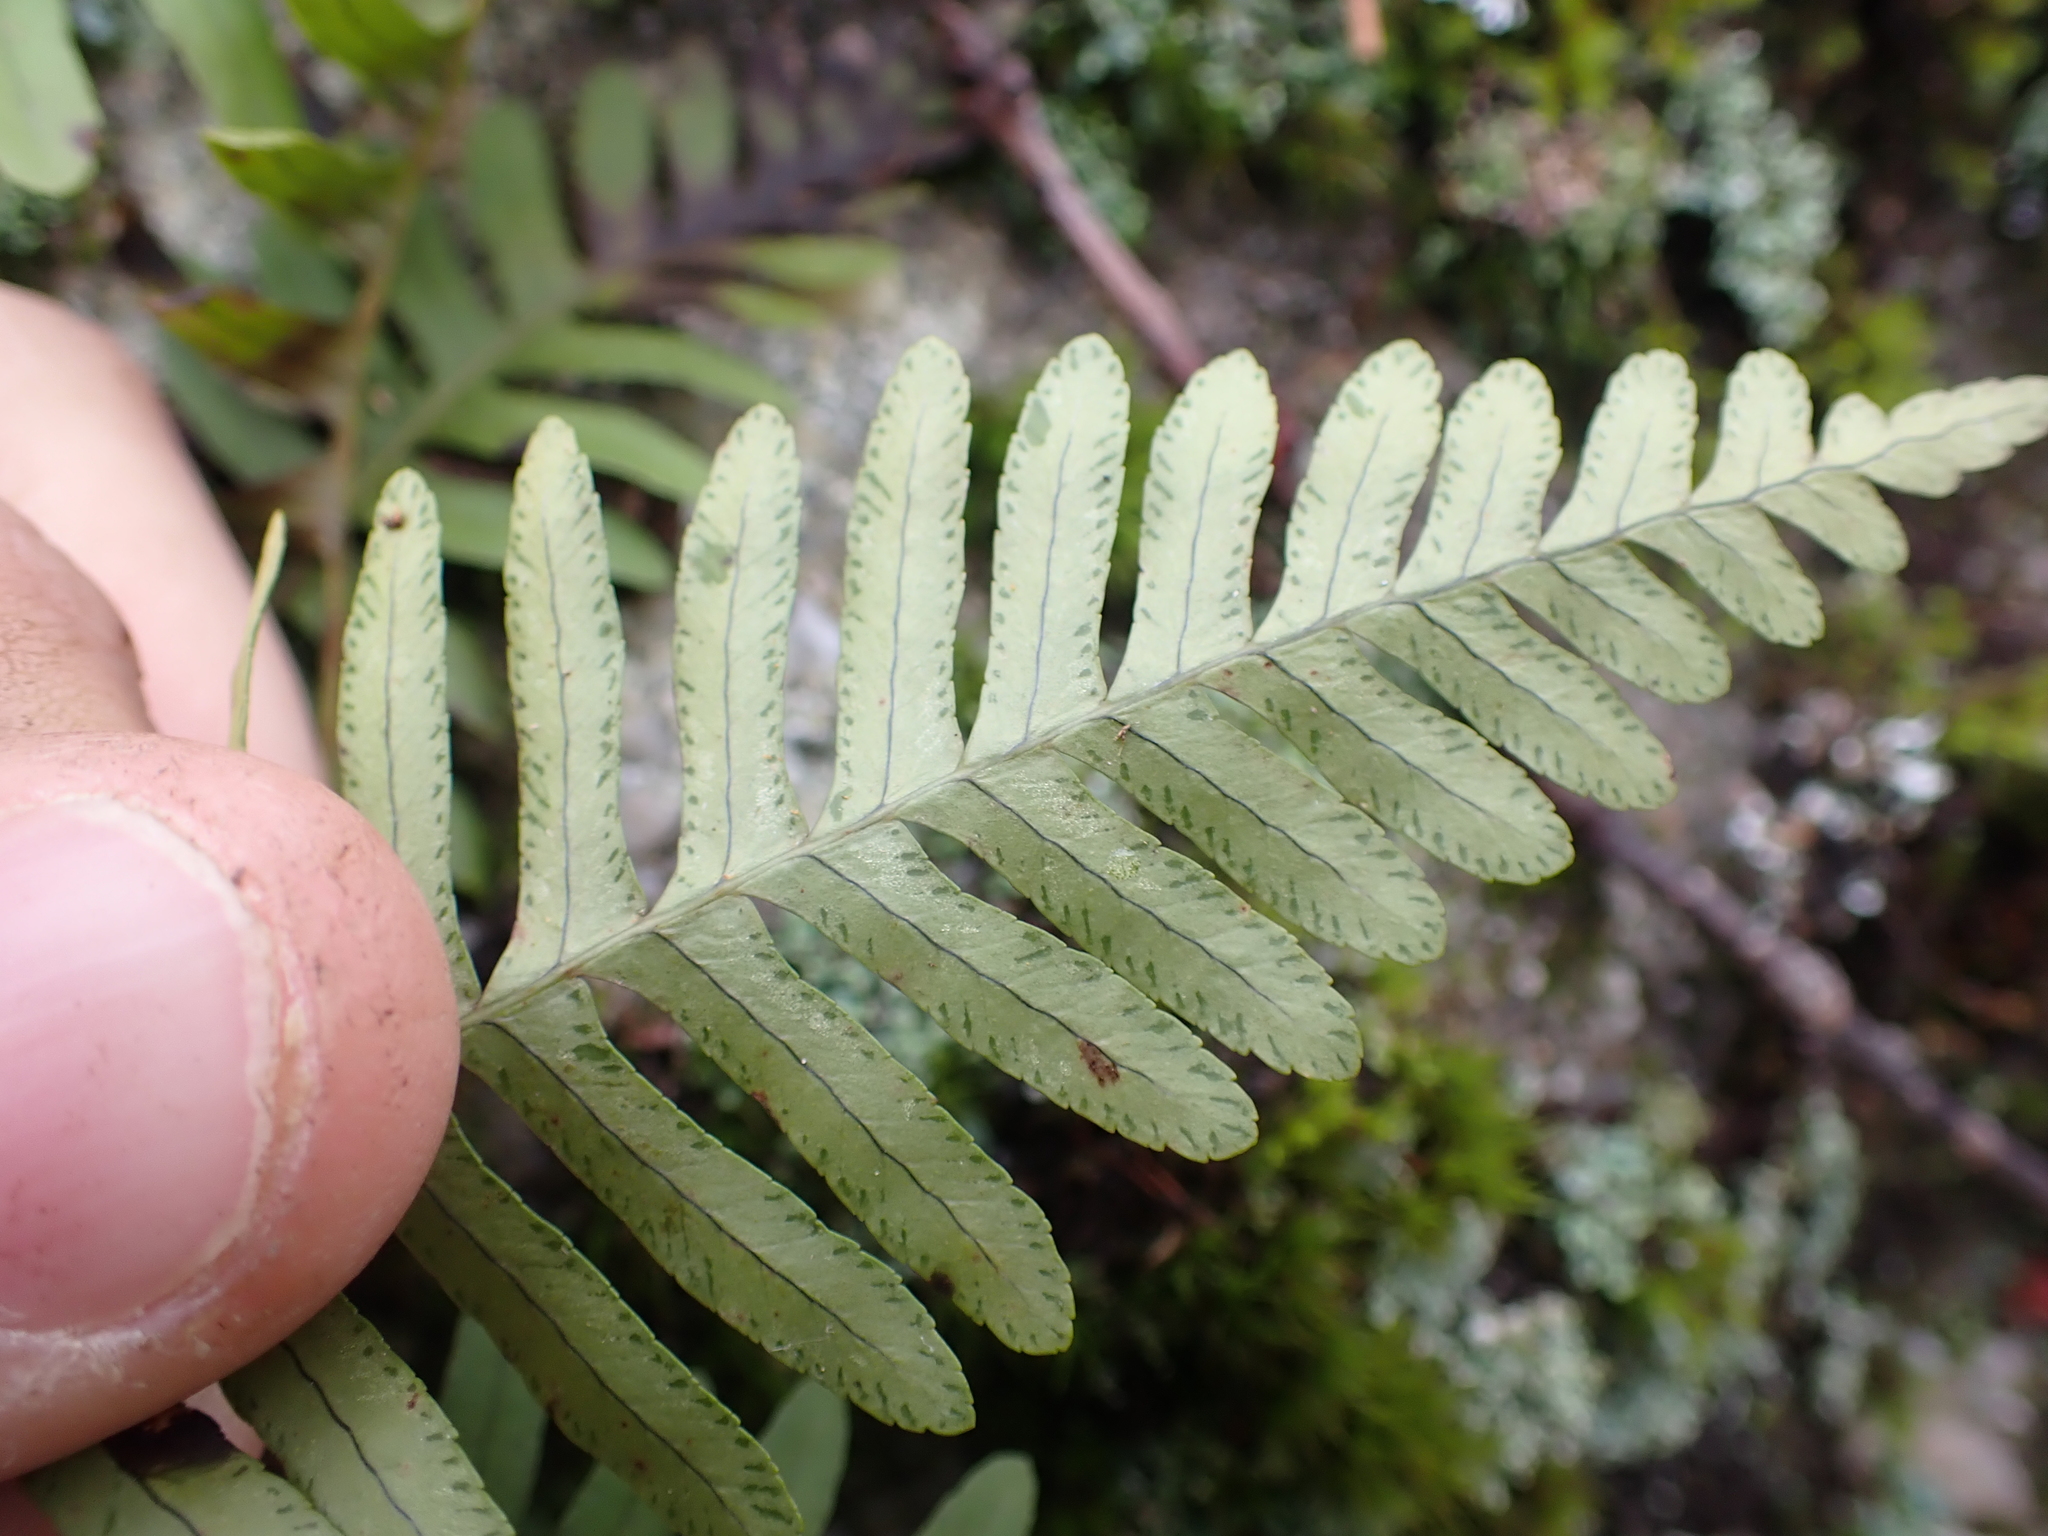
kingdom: Plantae
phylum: Tracheophyta
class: Polypodiopsida
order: Polypodiales
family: Polypodiaceae
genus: Polypodium
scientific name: Polypodium virginianum
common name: American wall fern
